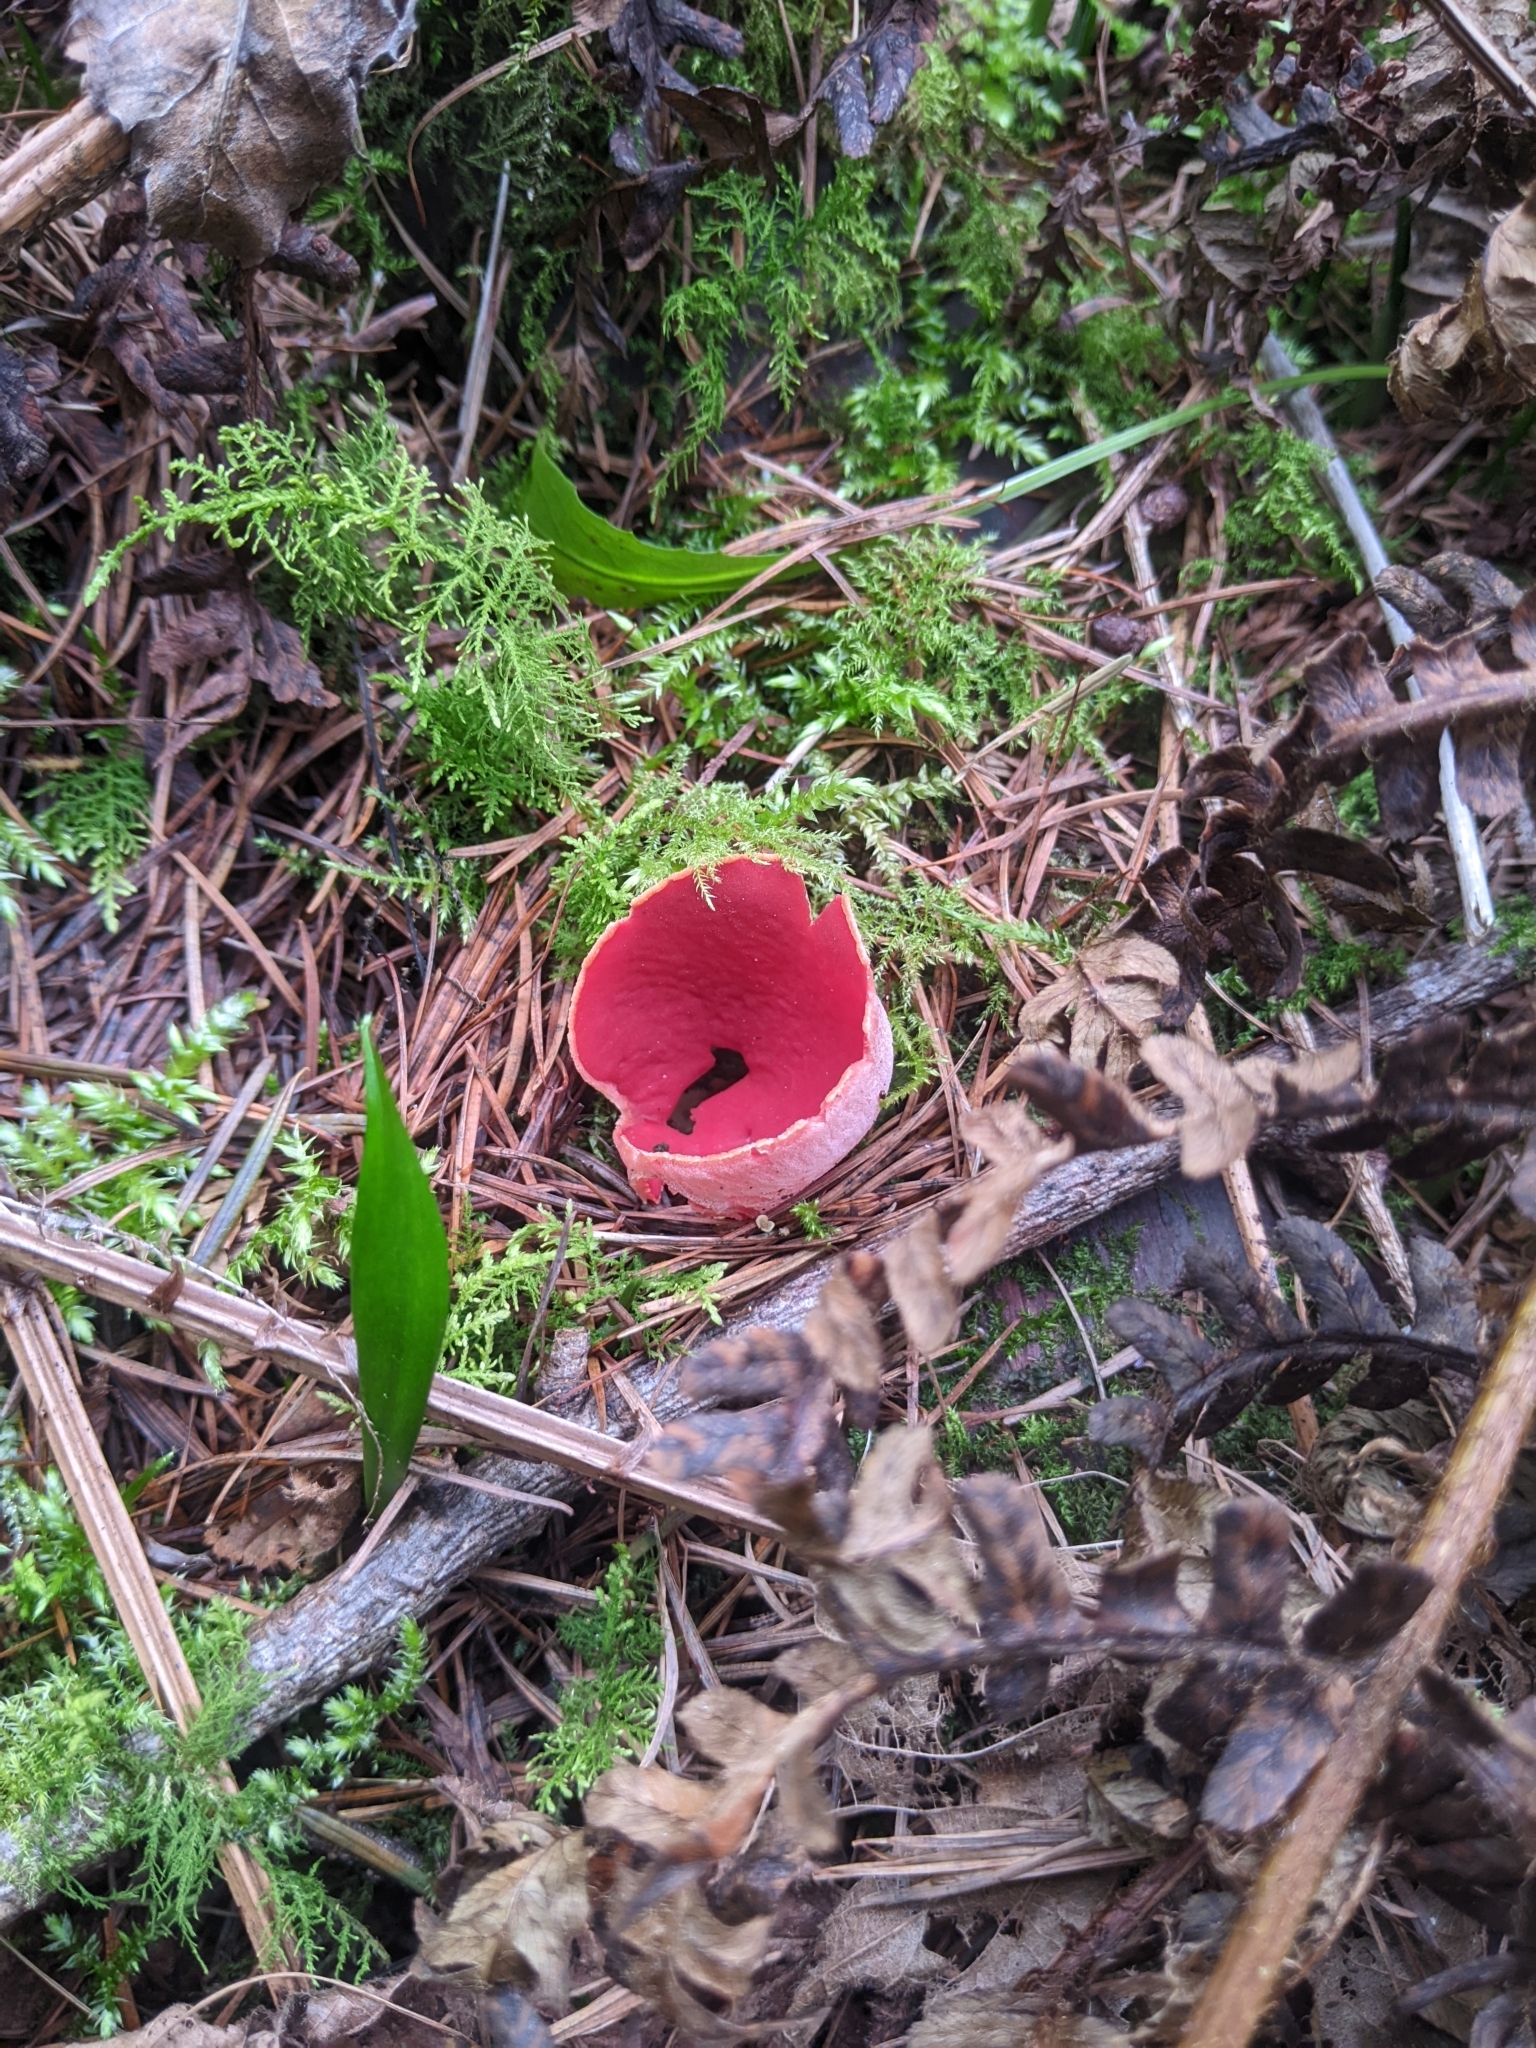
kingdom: Fungi
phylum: Ascomycota
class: Pezizomycetes
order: Pezizales
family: Sarcoscyphaceae
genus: Sarcoscypha
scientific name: Sarcoscypha
